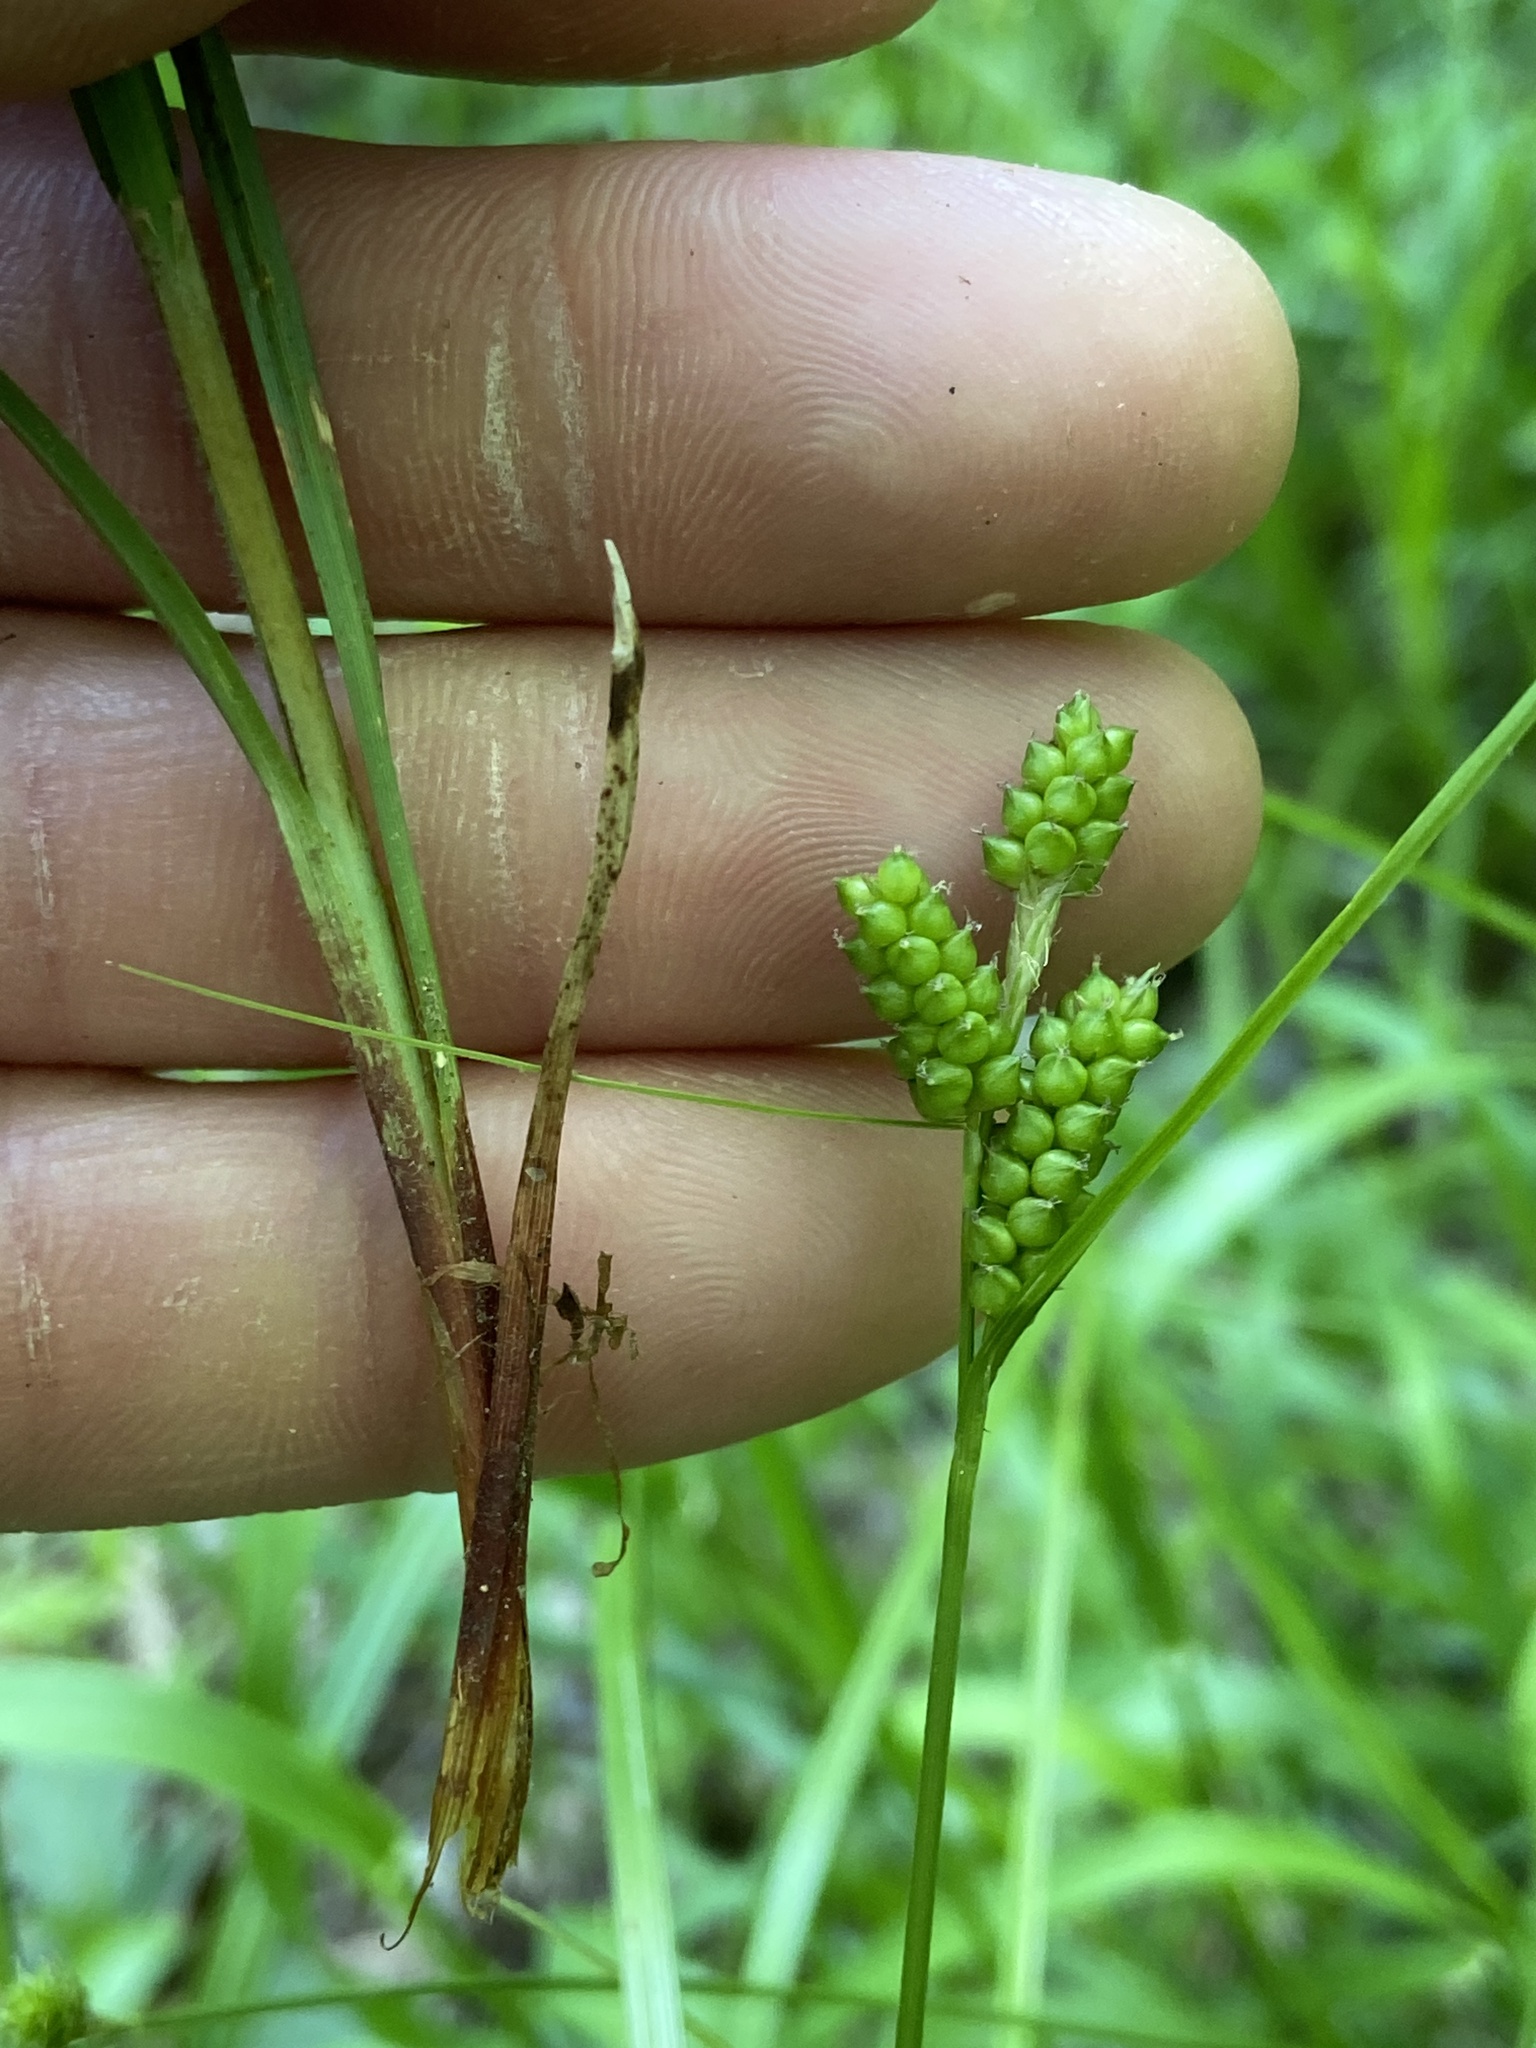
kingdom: Plantae
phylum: Tracheophyta
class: Liliopsida
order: Poales
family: Cyperaceae
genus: Carex
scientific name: Carex caroliniana
